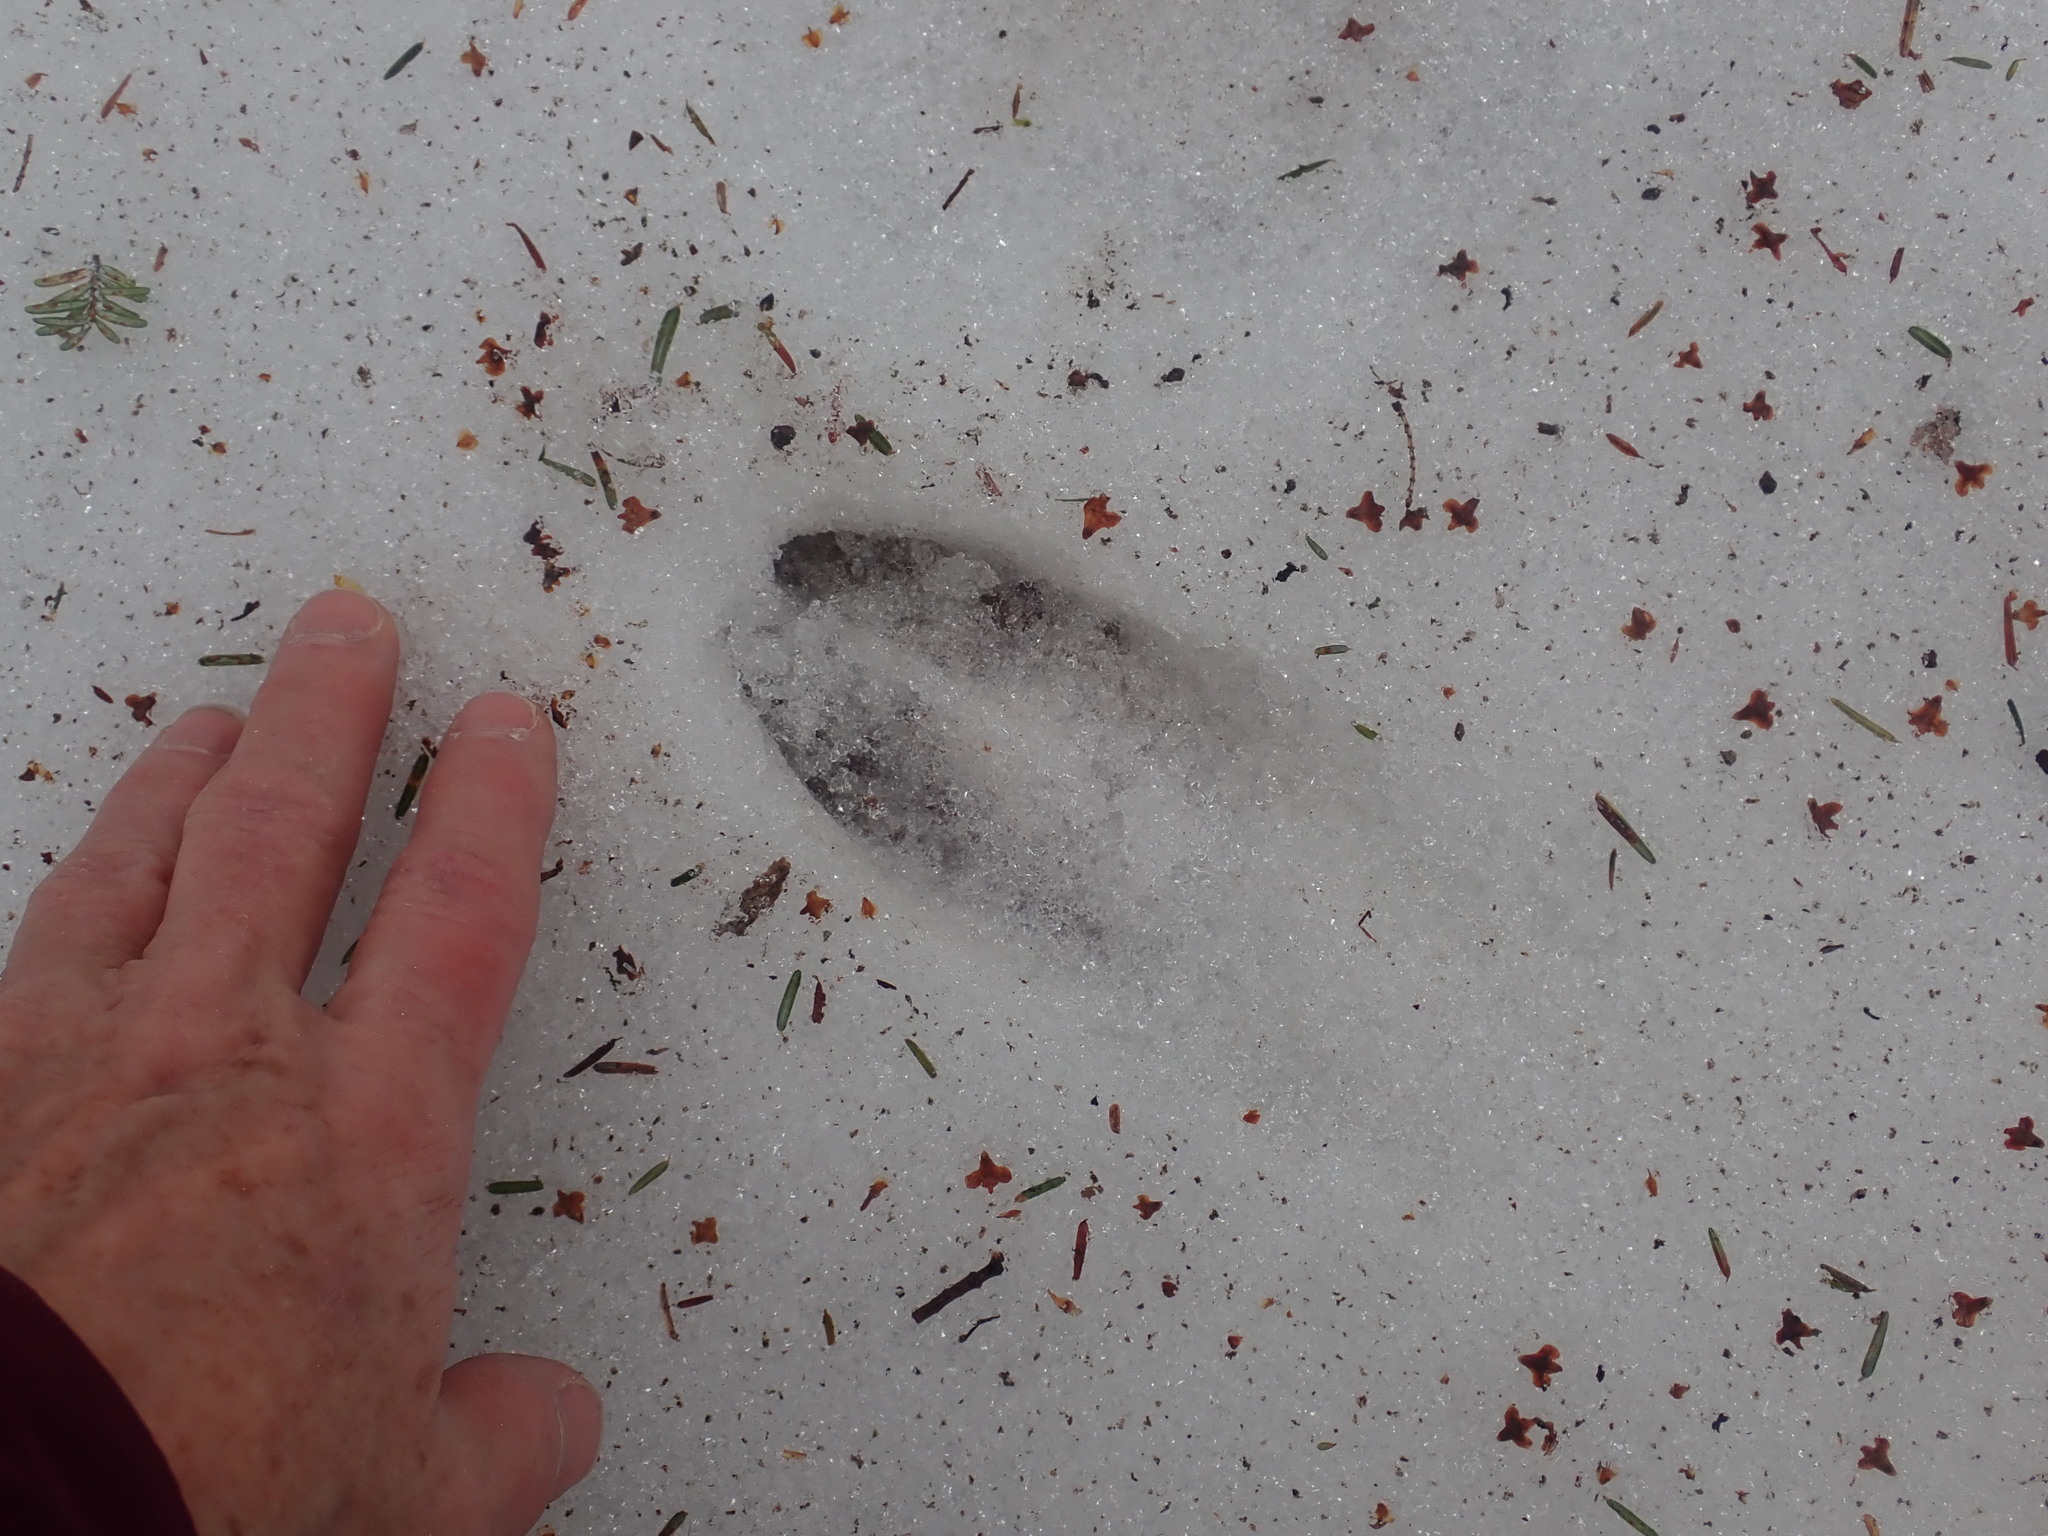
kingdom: Animalia
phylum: Chordata
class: Mammalia
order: Artiodactyla
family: Cervidae
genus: Odocoileus
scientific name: Odocoileus virginianus
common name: White-tailed deer
